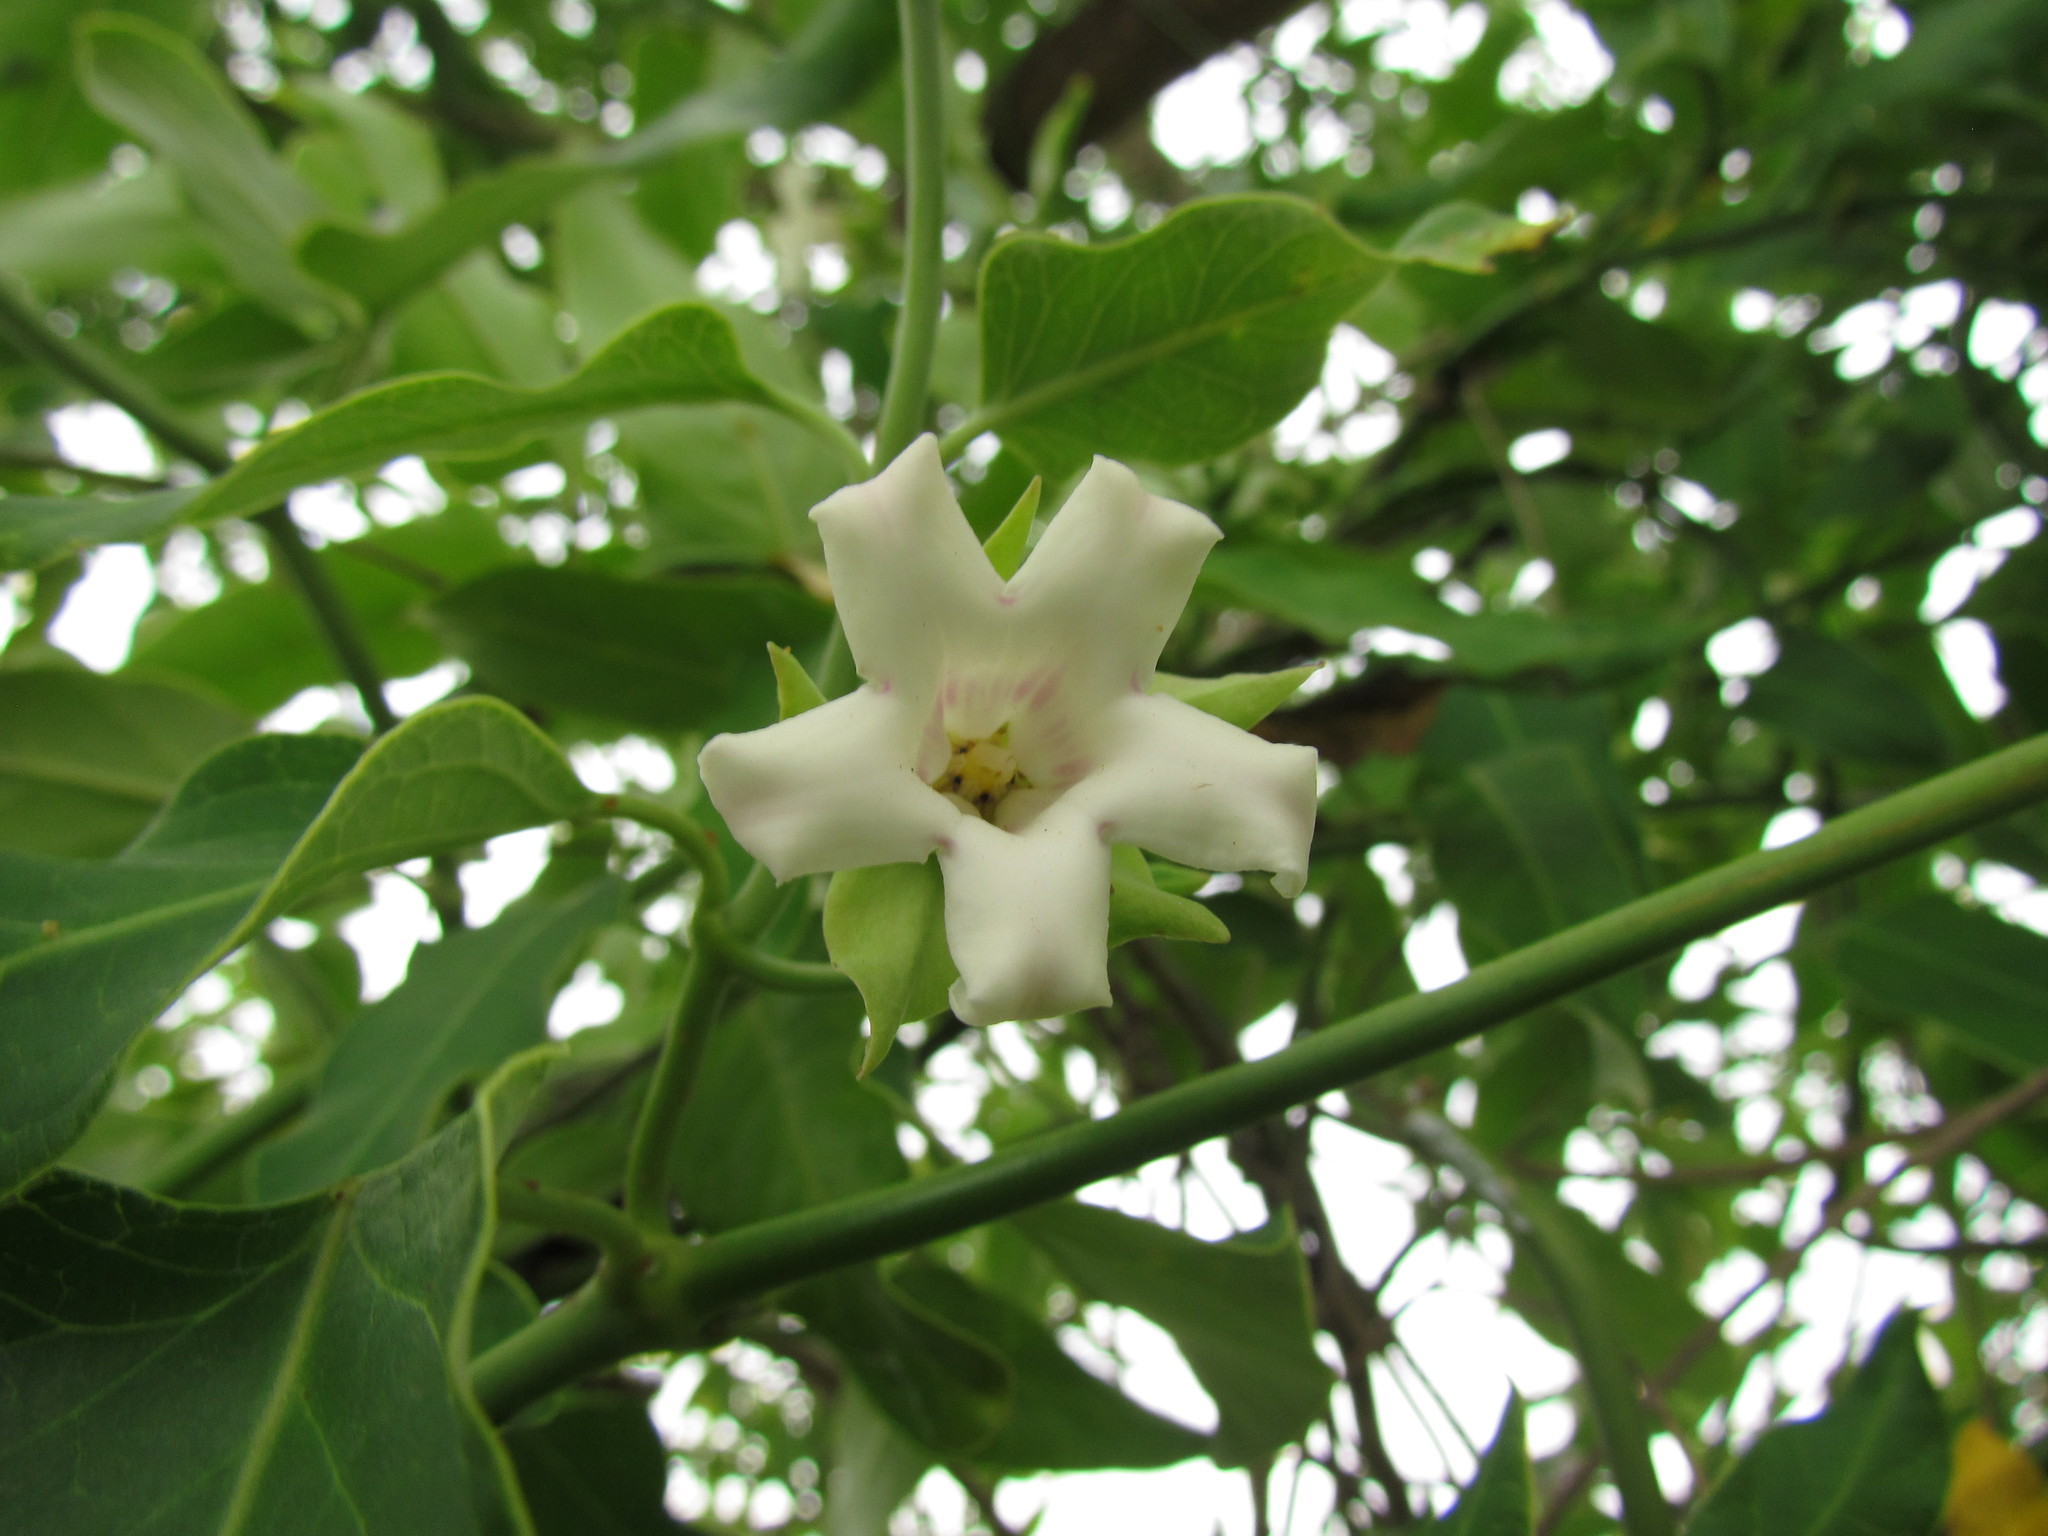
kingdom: Plantae
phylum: Tracheophyta
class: Magnoliopsida
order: Gentianales
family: Apocynaceae
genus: Araujia
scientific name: Araujia sericifera
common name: White bladderflower
